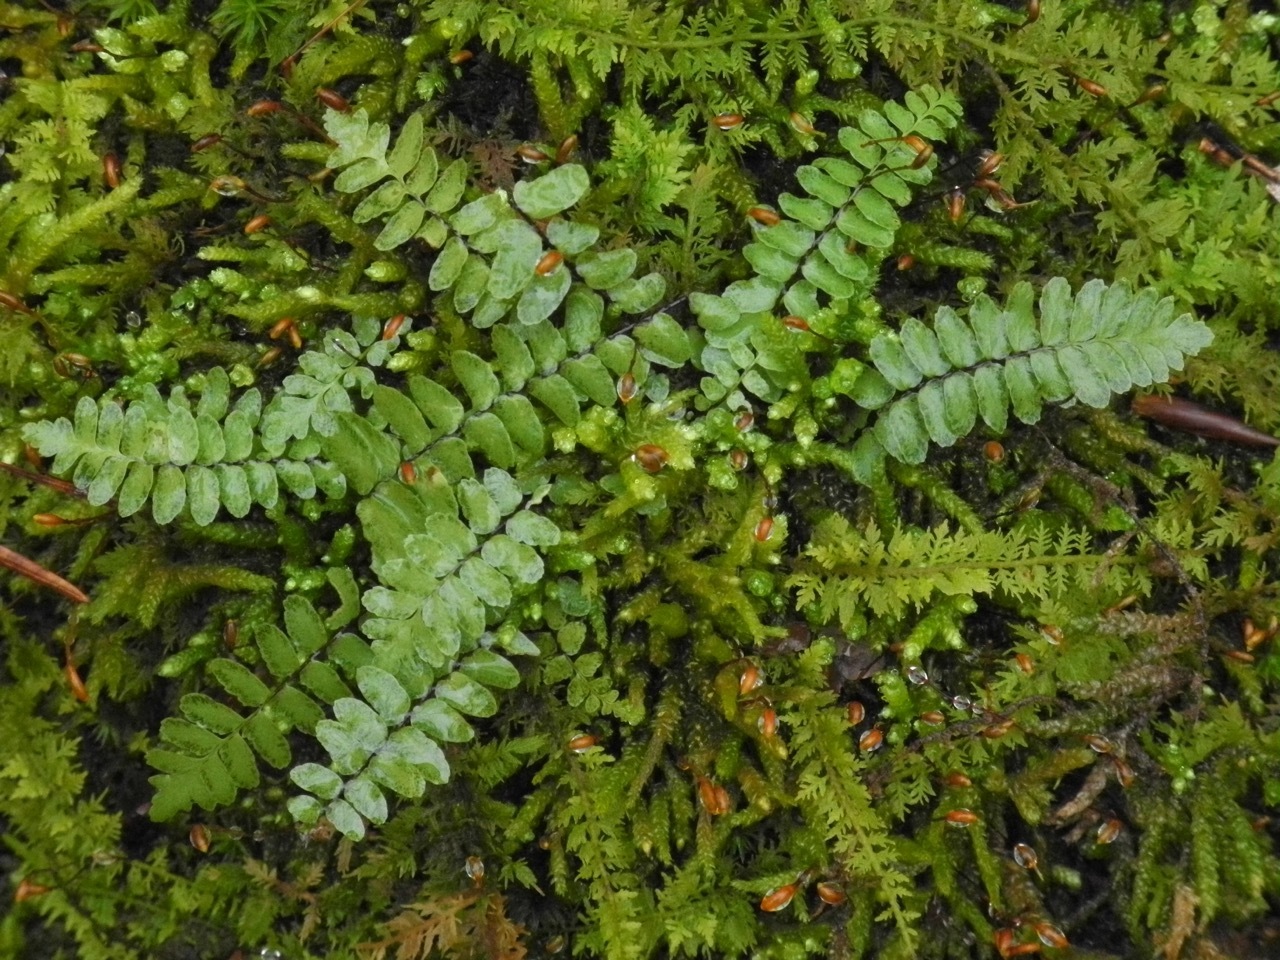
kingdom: Plantae
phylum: Tracheophyta
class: Polypodiopsida
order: Polypodiales
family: Aspleniaceae
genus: Asplenium
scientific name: Asplenium platyneuron
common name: Ebony spleenwort
